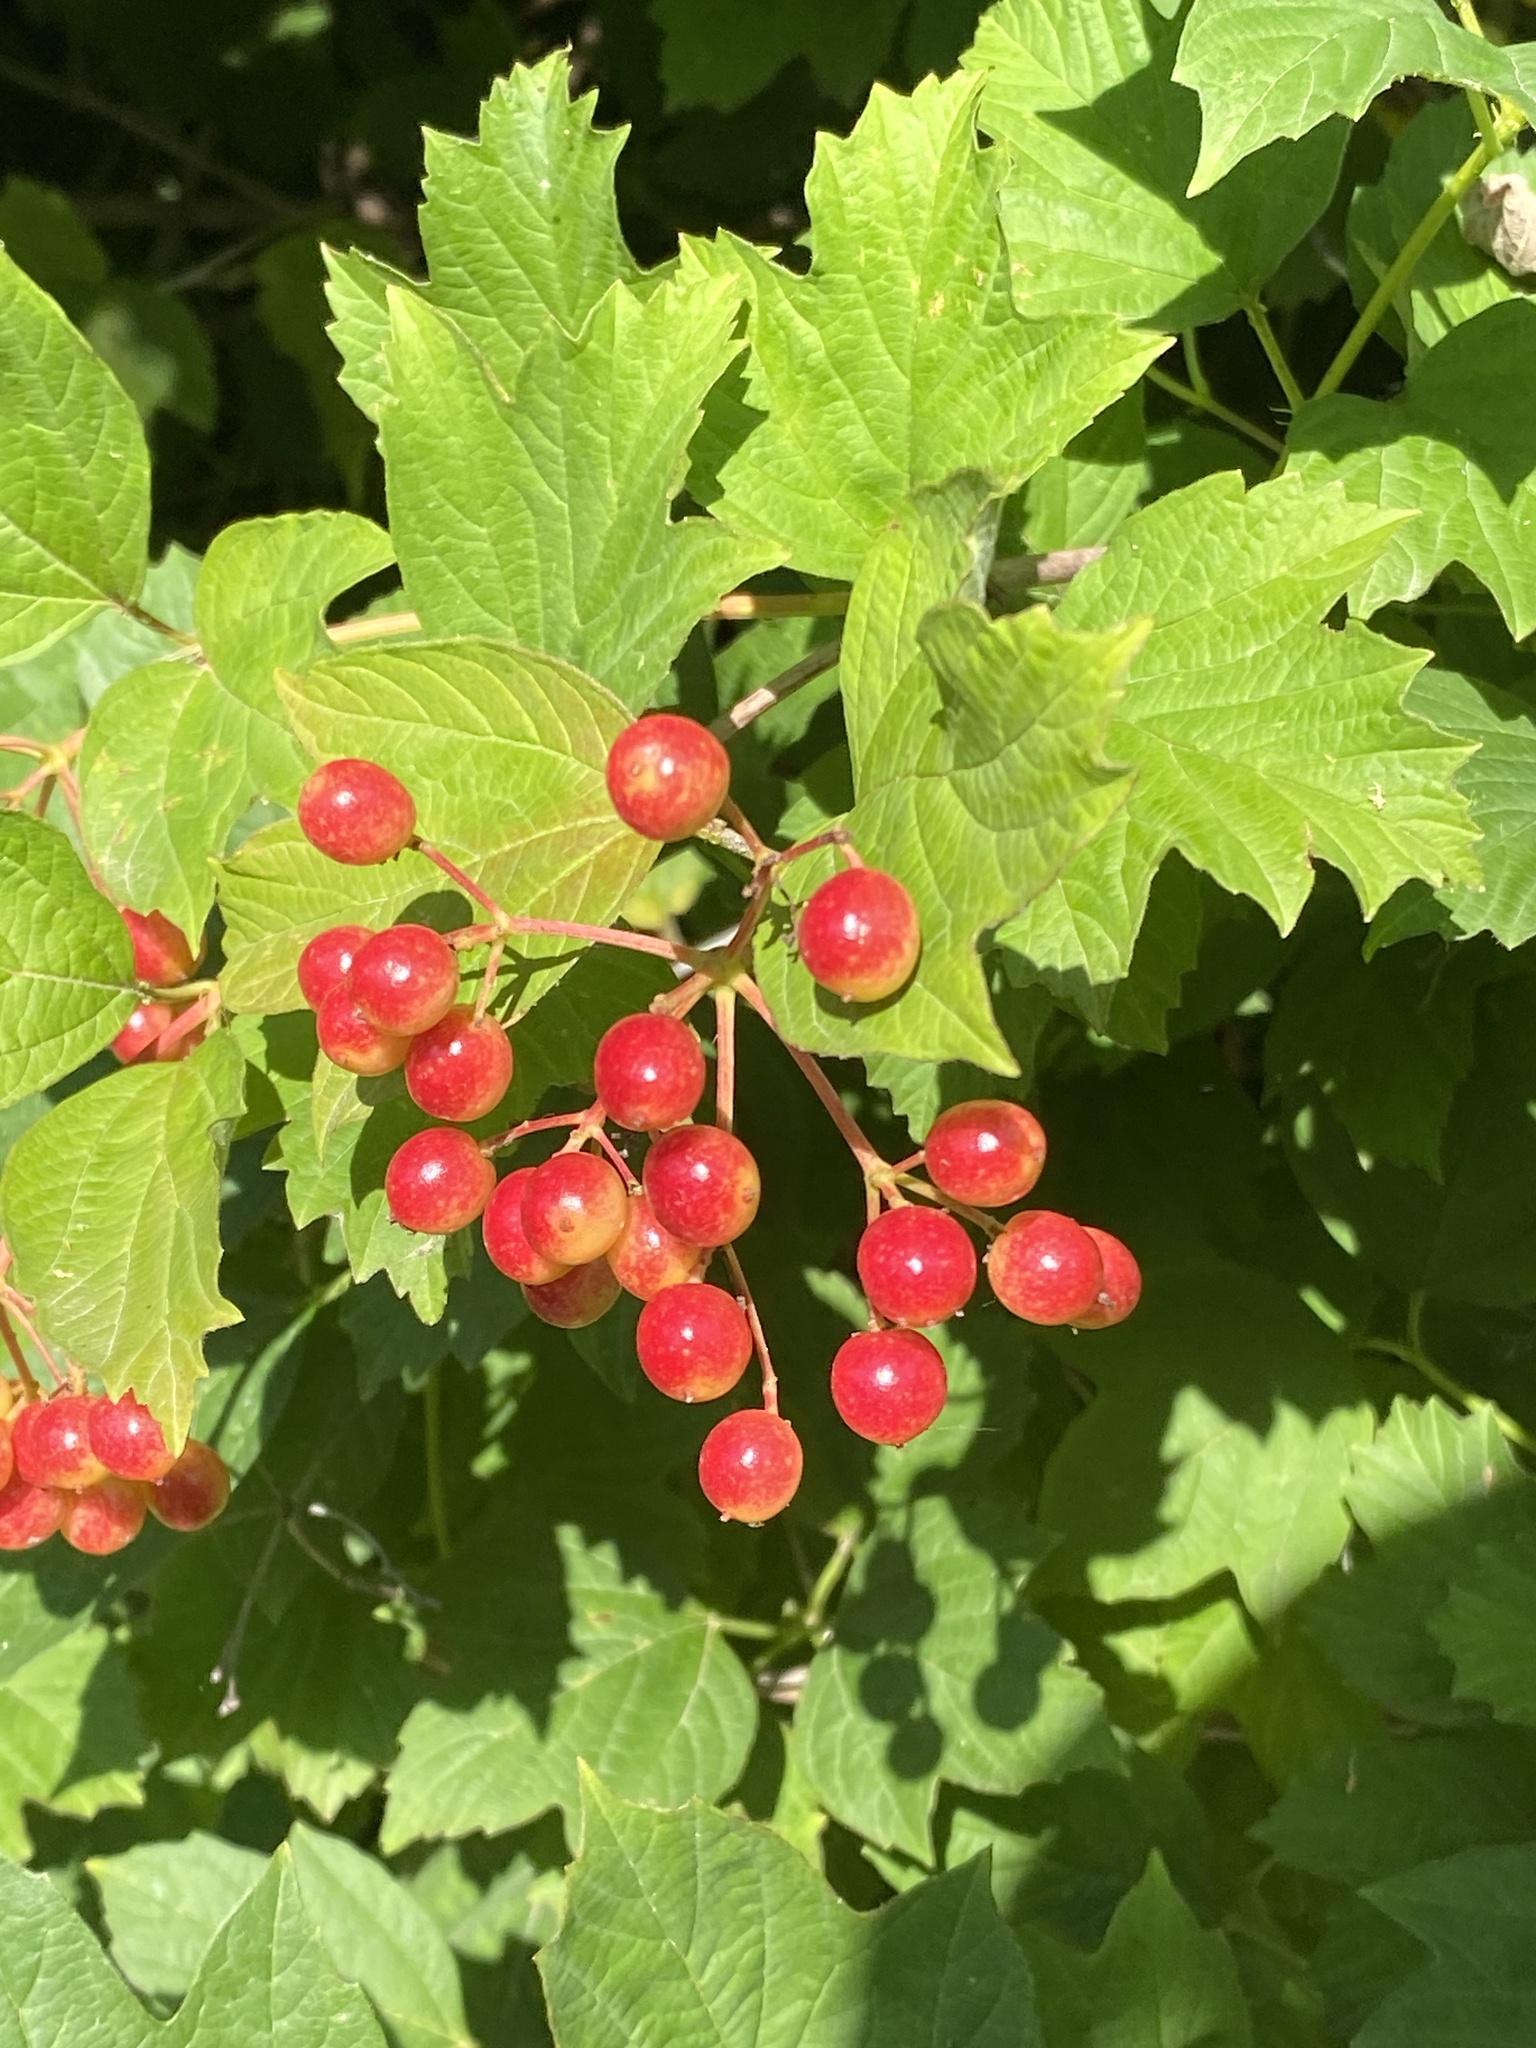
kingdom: Plantae
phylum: Tracheophyta
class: Magnoliopsida
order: Dipsacales
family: Viburnaceae
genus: Viburnum
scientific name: Viburnum opulus
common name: Guelder-rose
